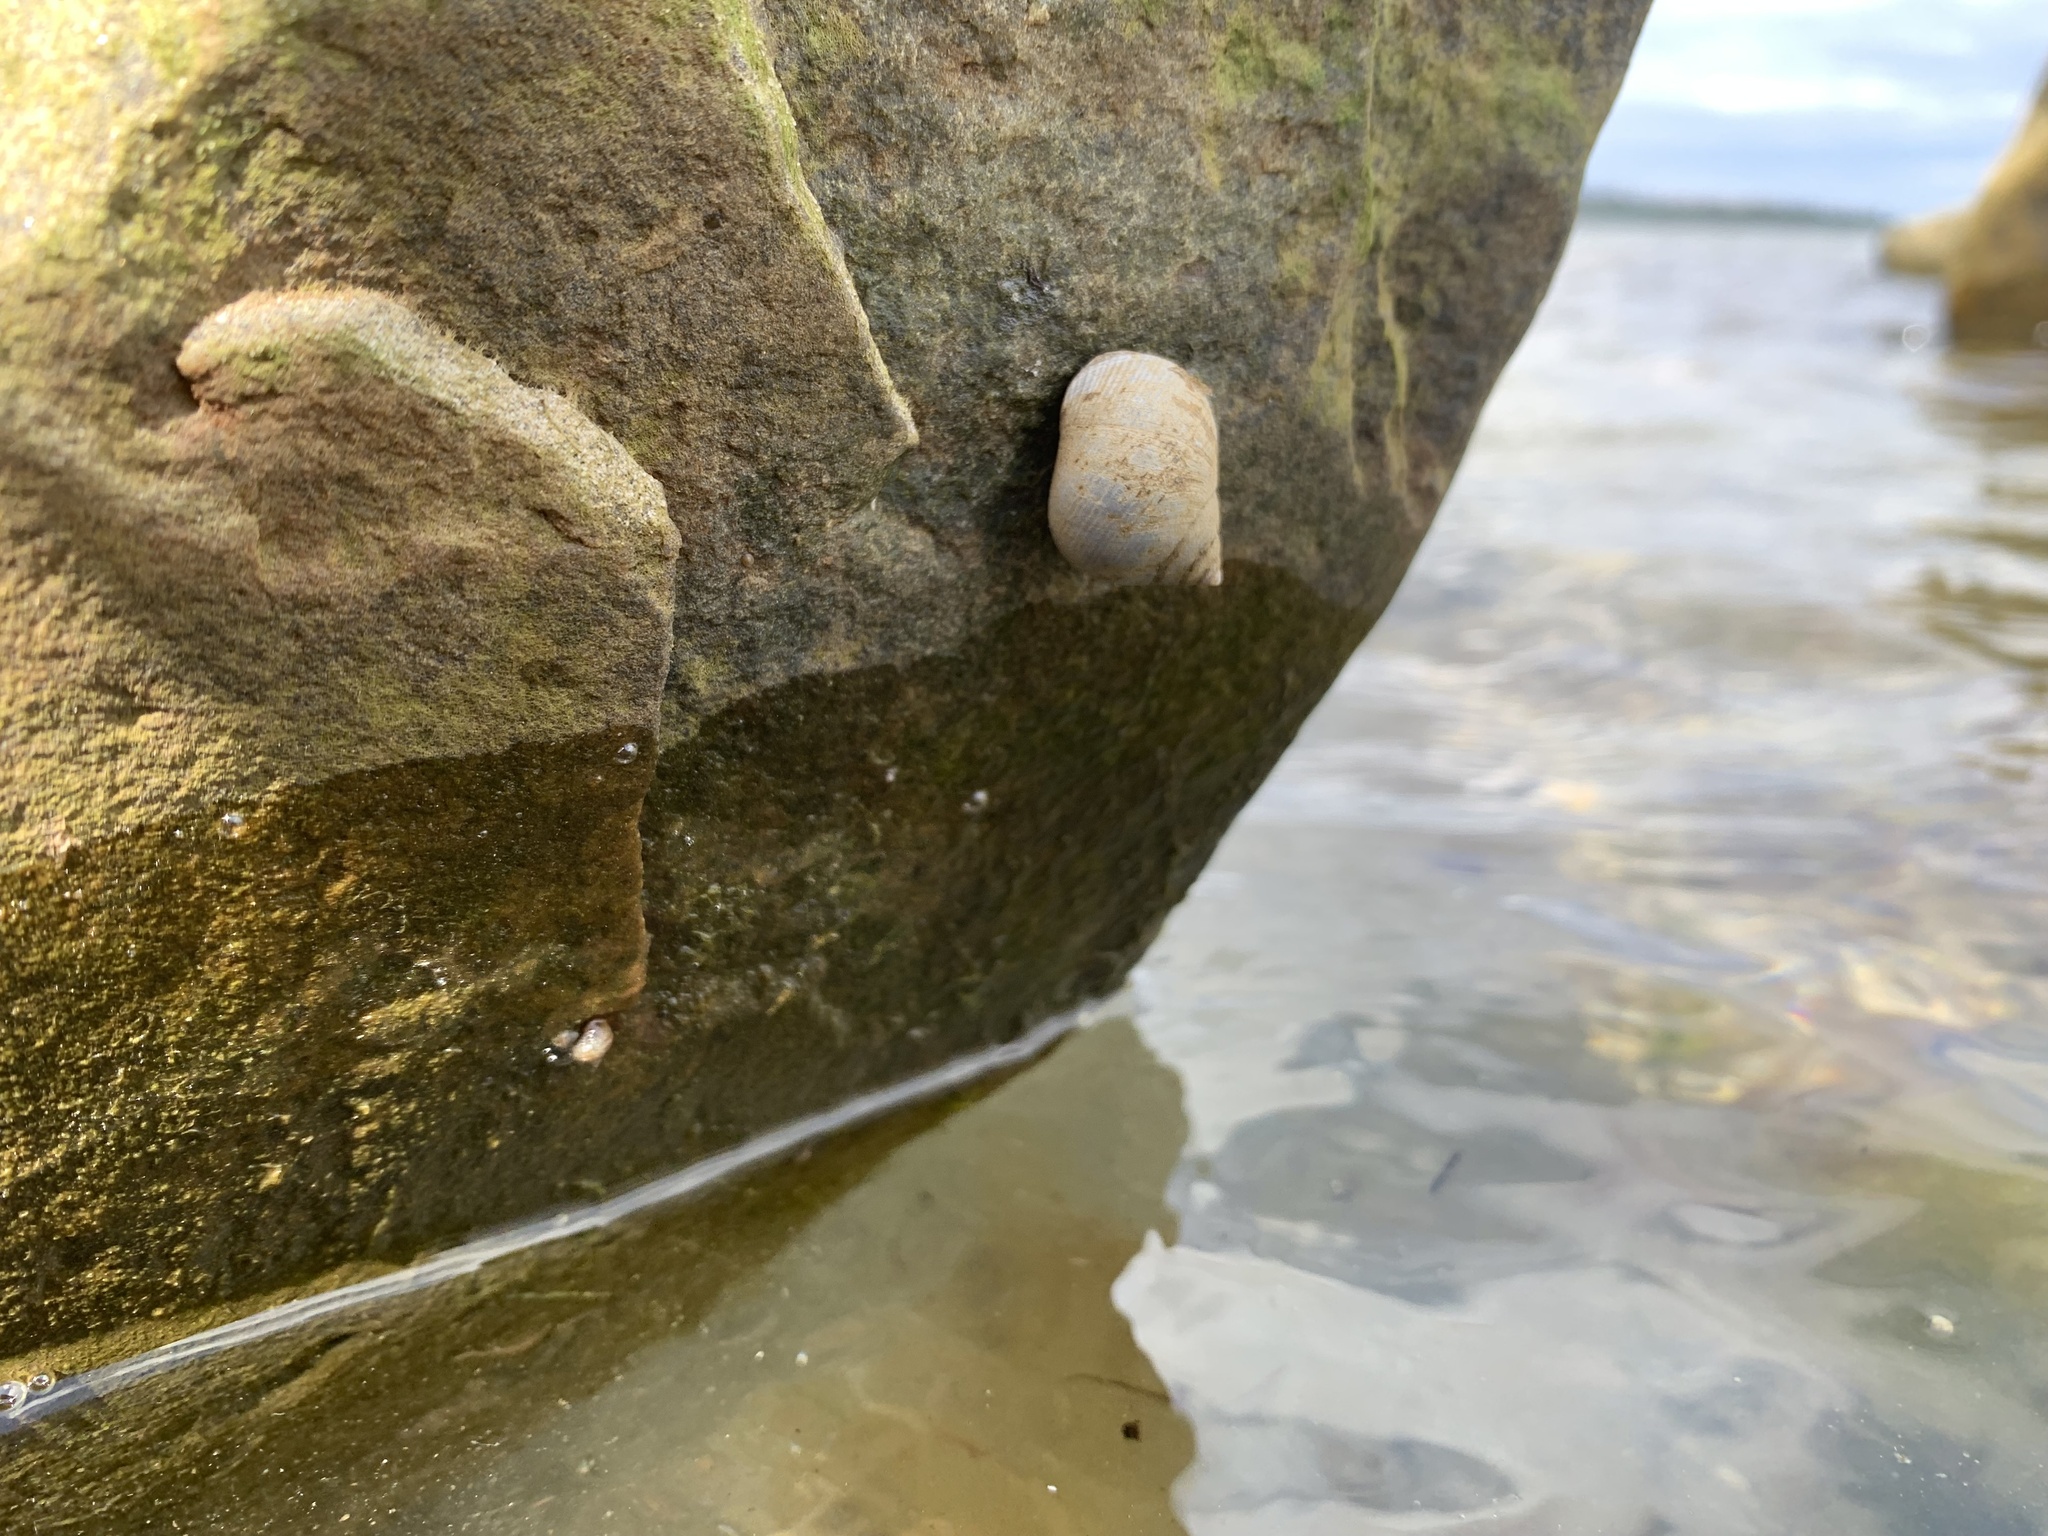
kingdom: Animalia
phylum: Mollusca
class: Gastropoda
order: Littorinimorpha
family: Littorinidae
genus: Littorina
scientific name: Littorina littorea
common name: Common periwinkle
